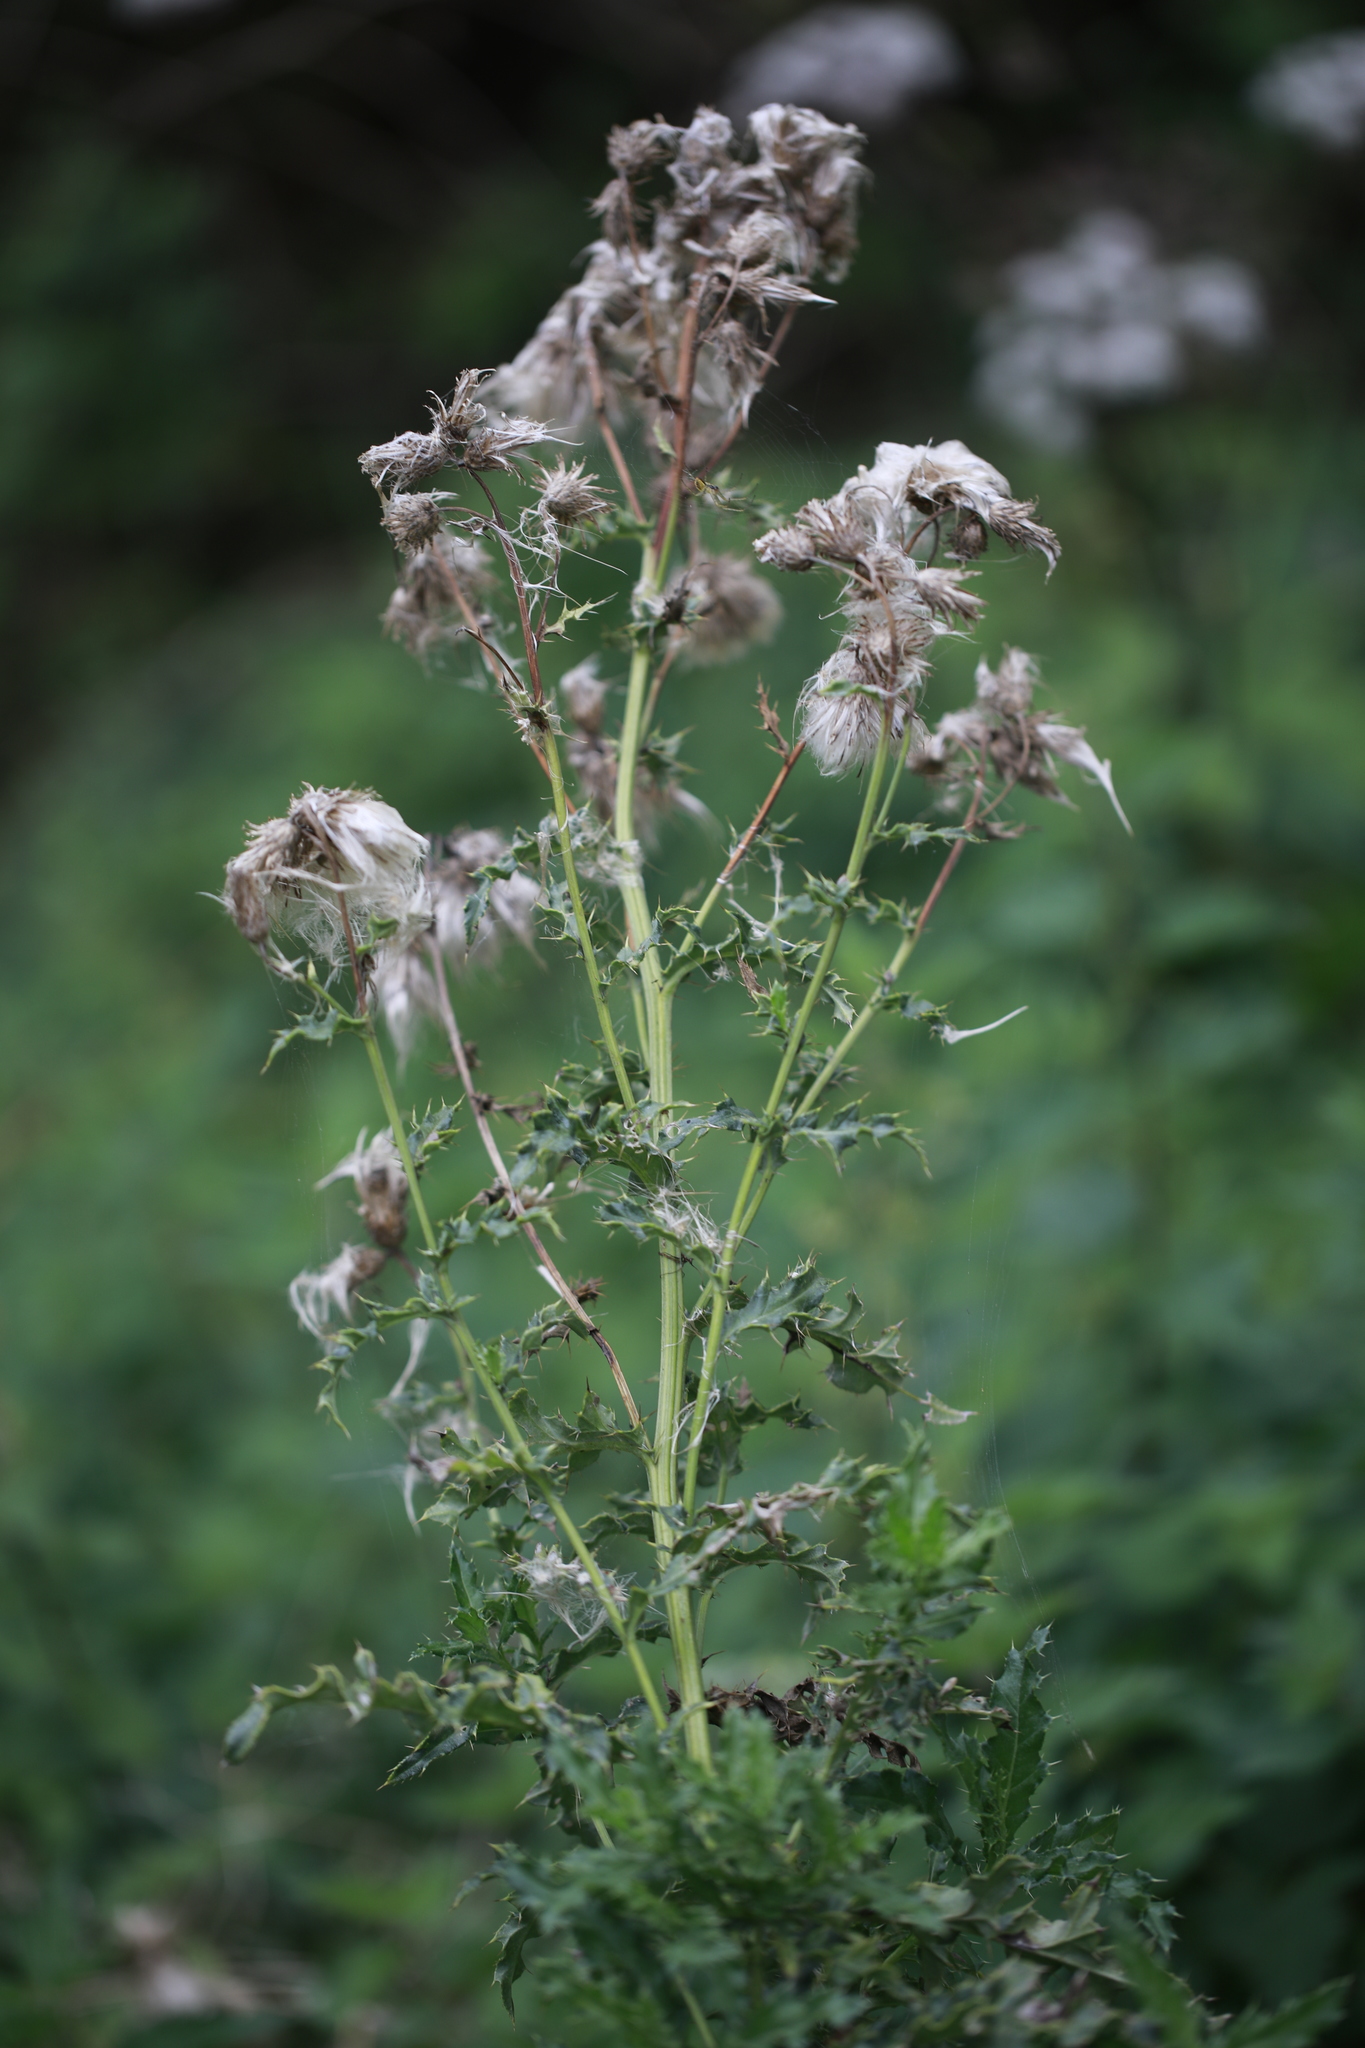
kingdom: Plantae
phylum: Tracheophyta
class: Magnoliopsida
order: Asterales
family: Asteraceae
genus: Cirsium
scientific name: Cirsium arvense
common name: Creeping thistle
